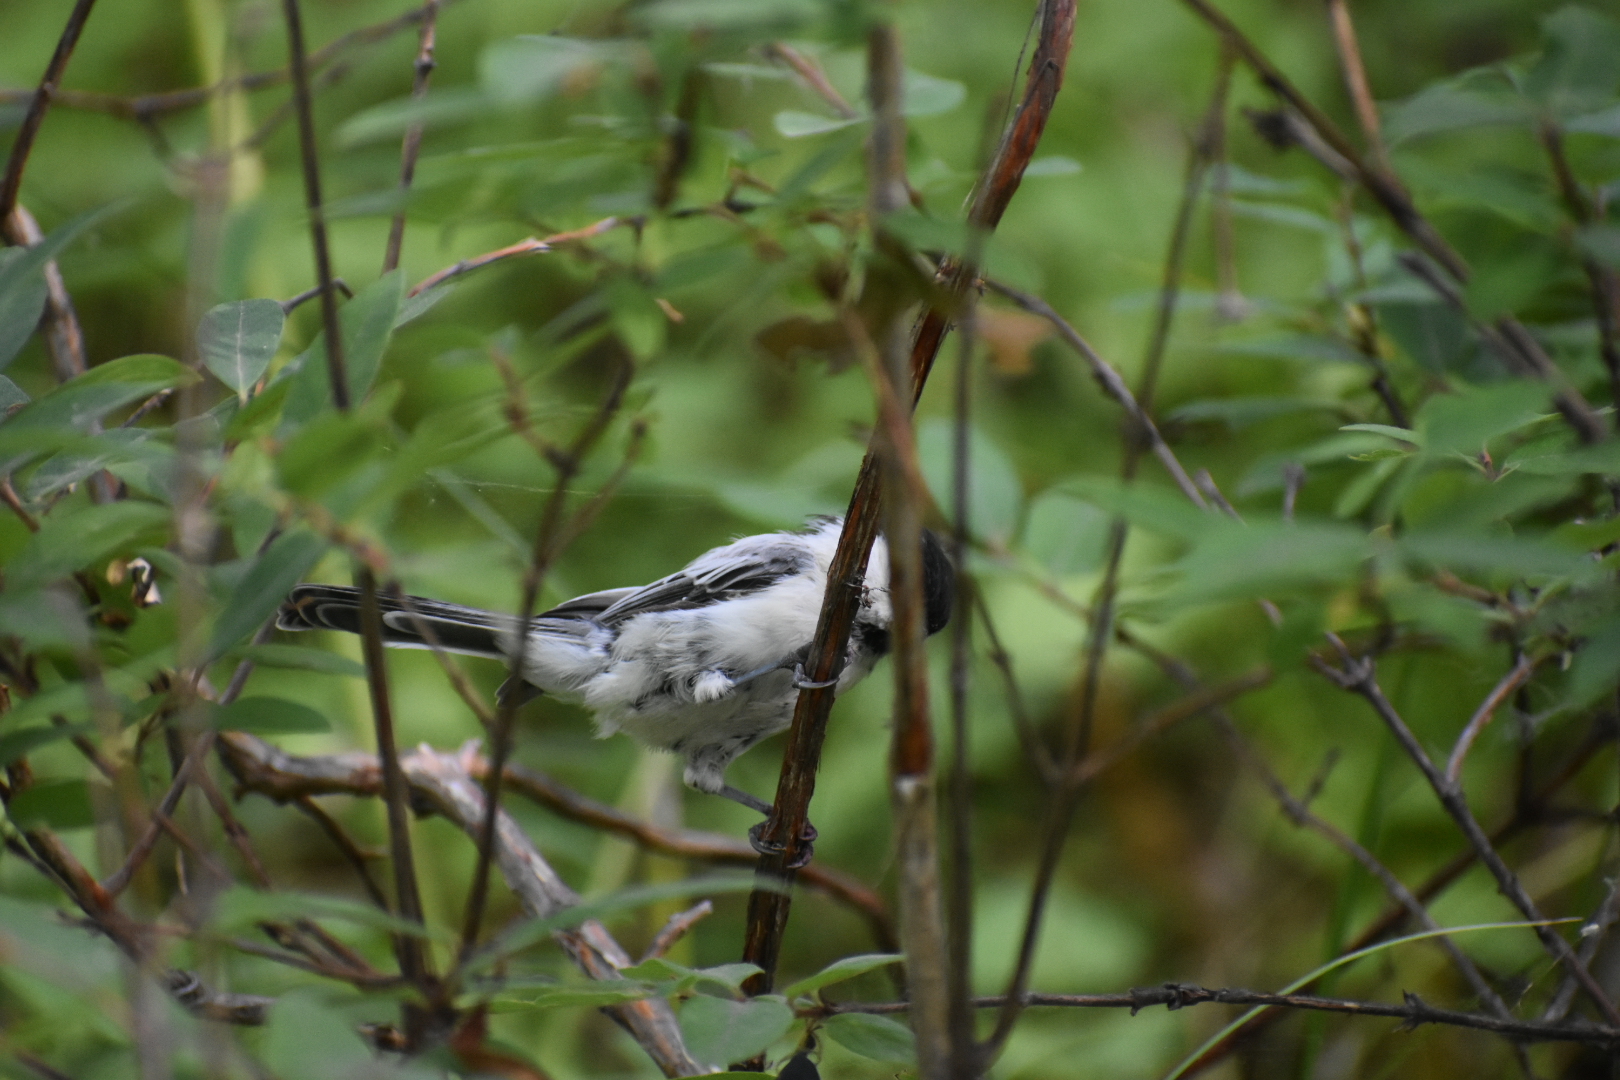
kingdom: Animalia
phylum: Chordata
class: Aves
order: Passeriformes
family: Paridae
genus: Poecile
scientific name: Poecile montanus
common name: Willow tit
